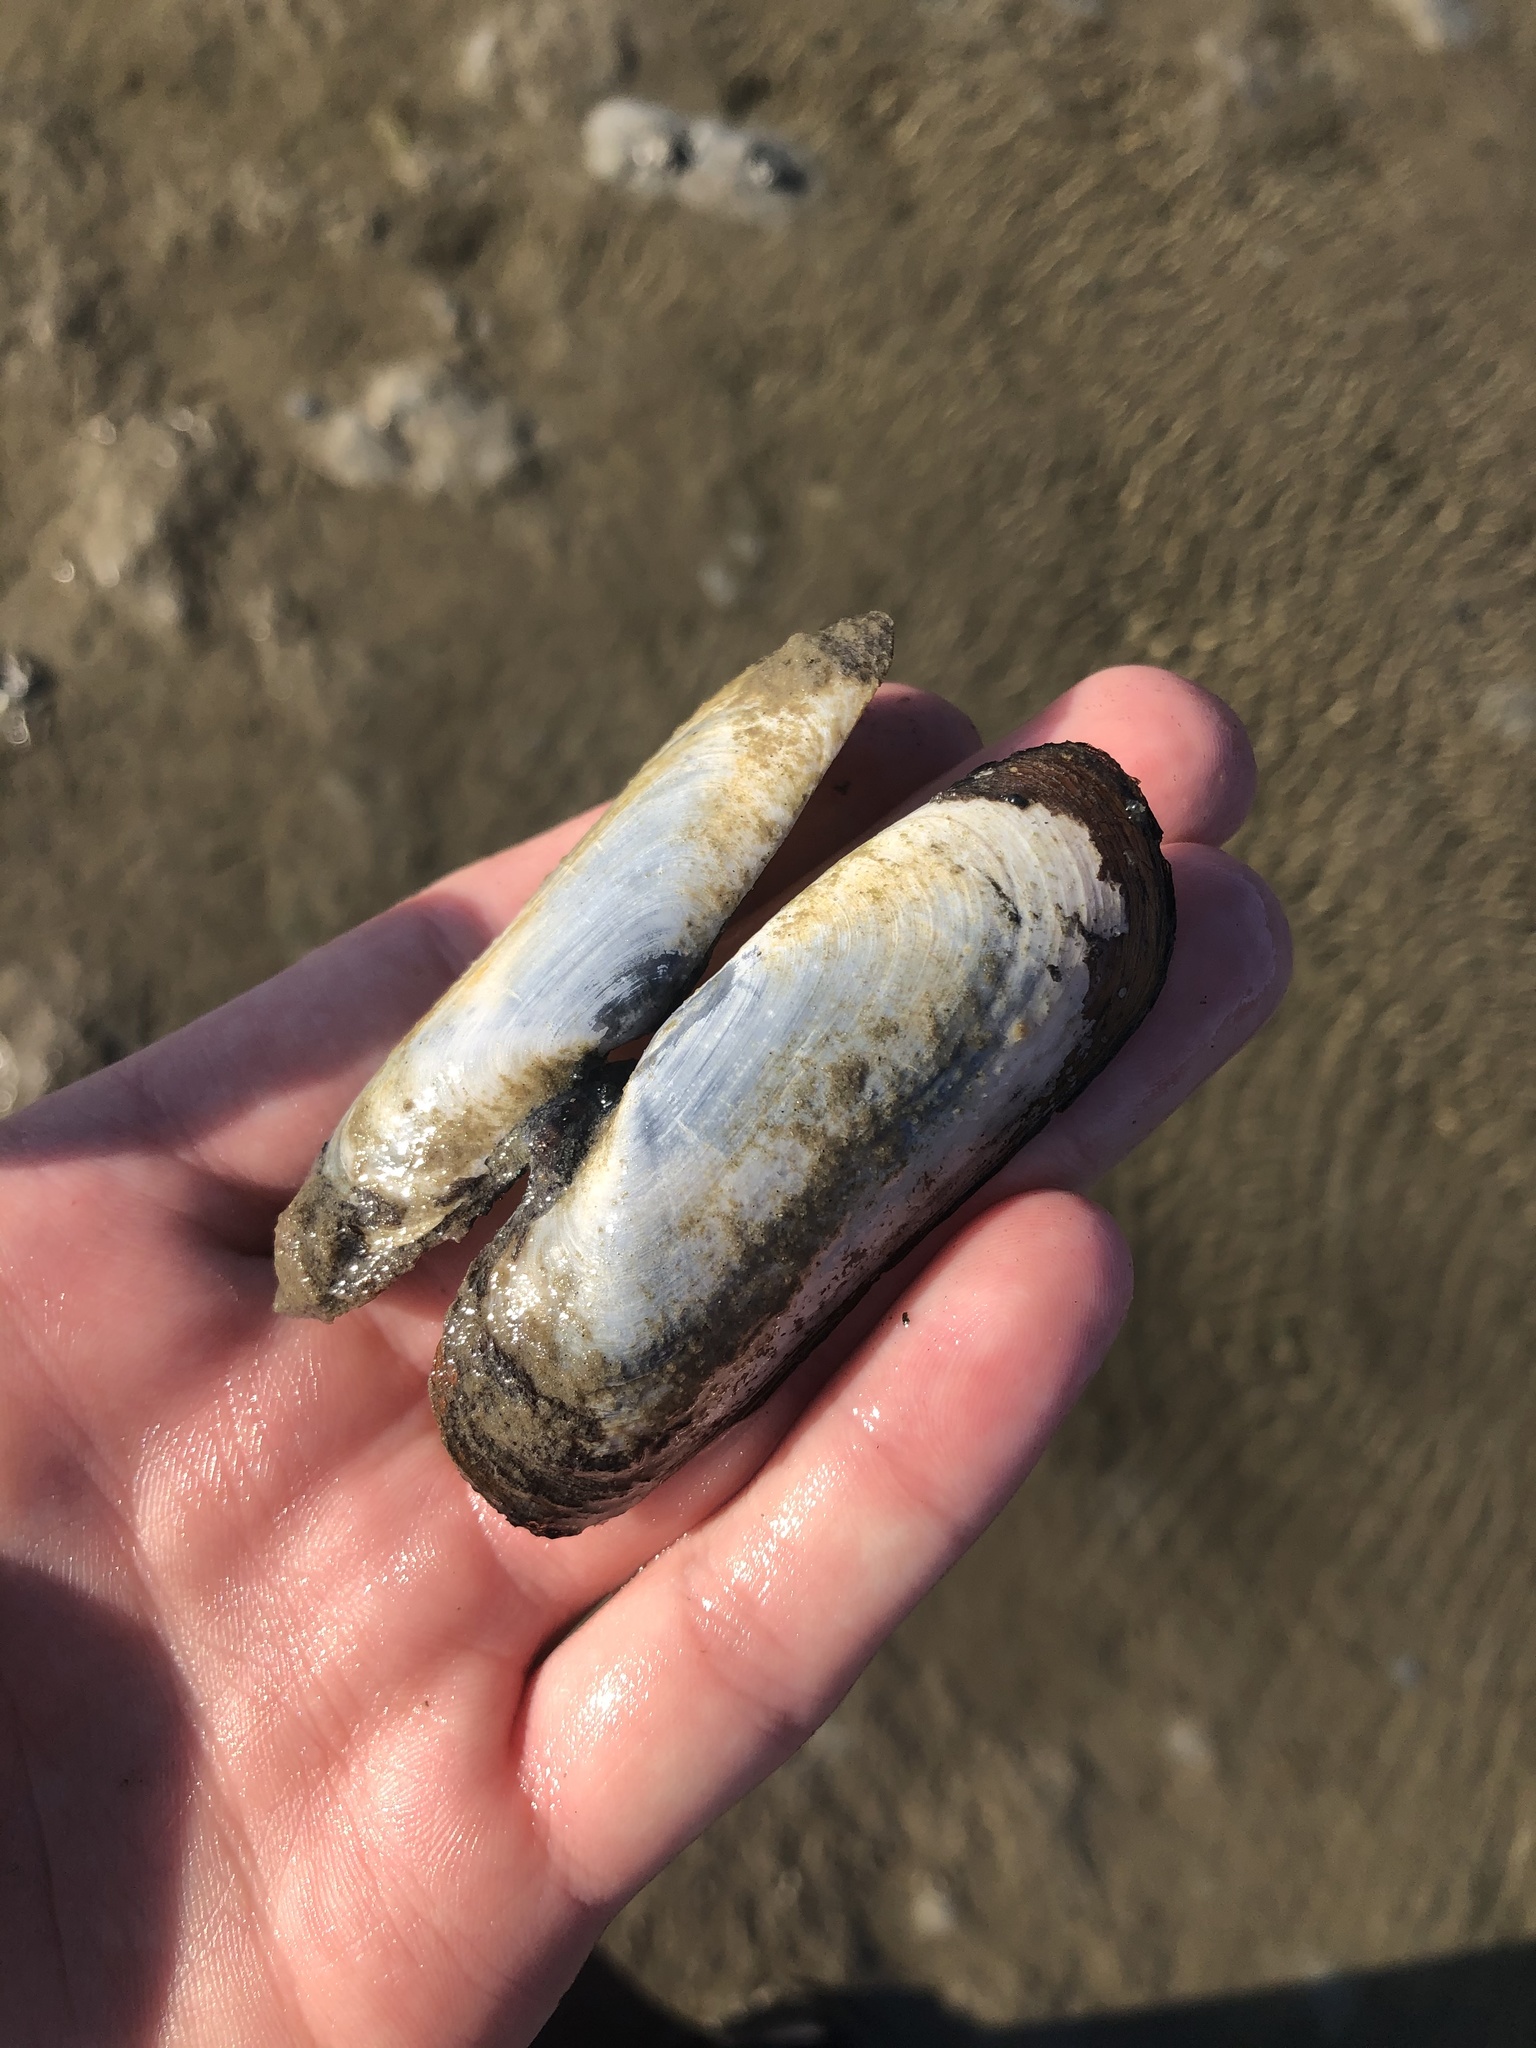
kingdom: Animalia
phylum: Mollusca
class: Bivalvia
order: Cardiida
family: Solecurtidae
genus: Tagelus
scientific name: Tagelus plebeius
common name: Stout tagelus
